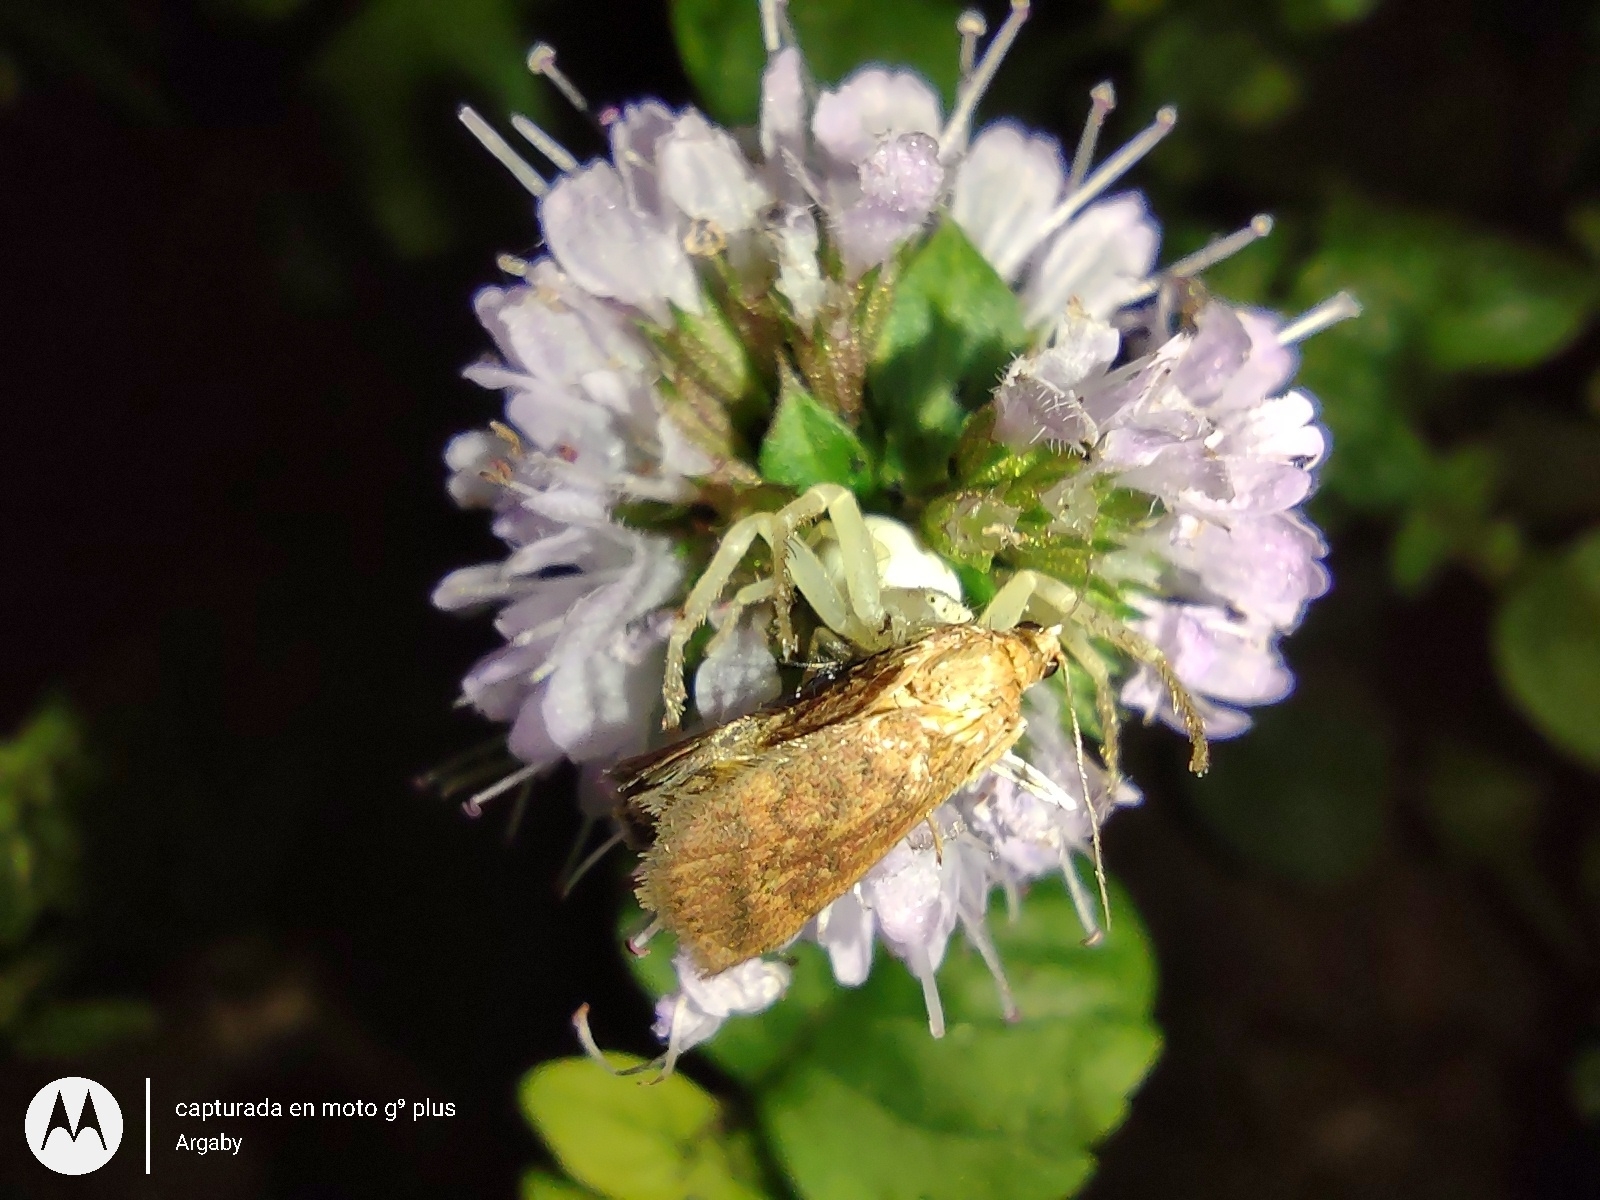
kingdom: Animalia
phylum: Arthropoda
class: Arachnida
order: Araneae
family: Thomisidae
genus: Misumenops
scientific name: Misumenops
